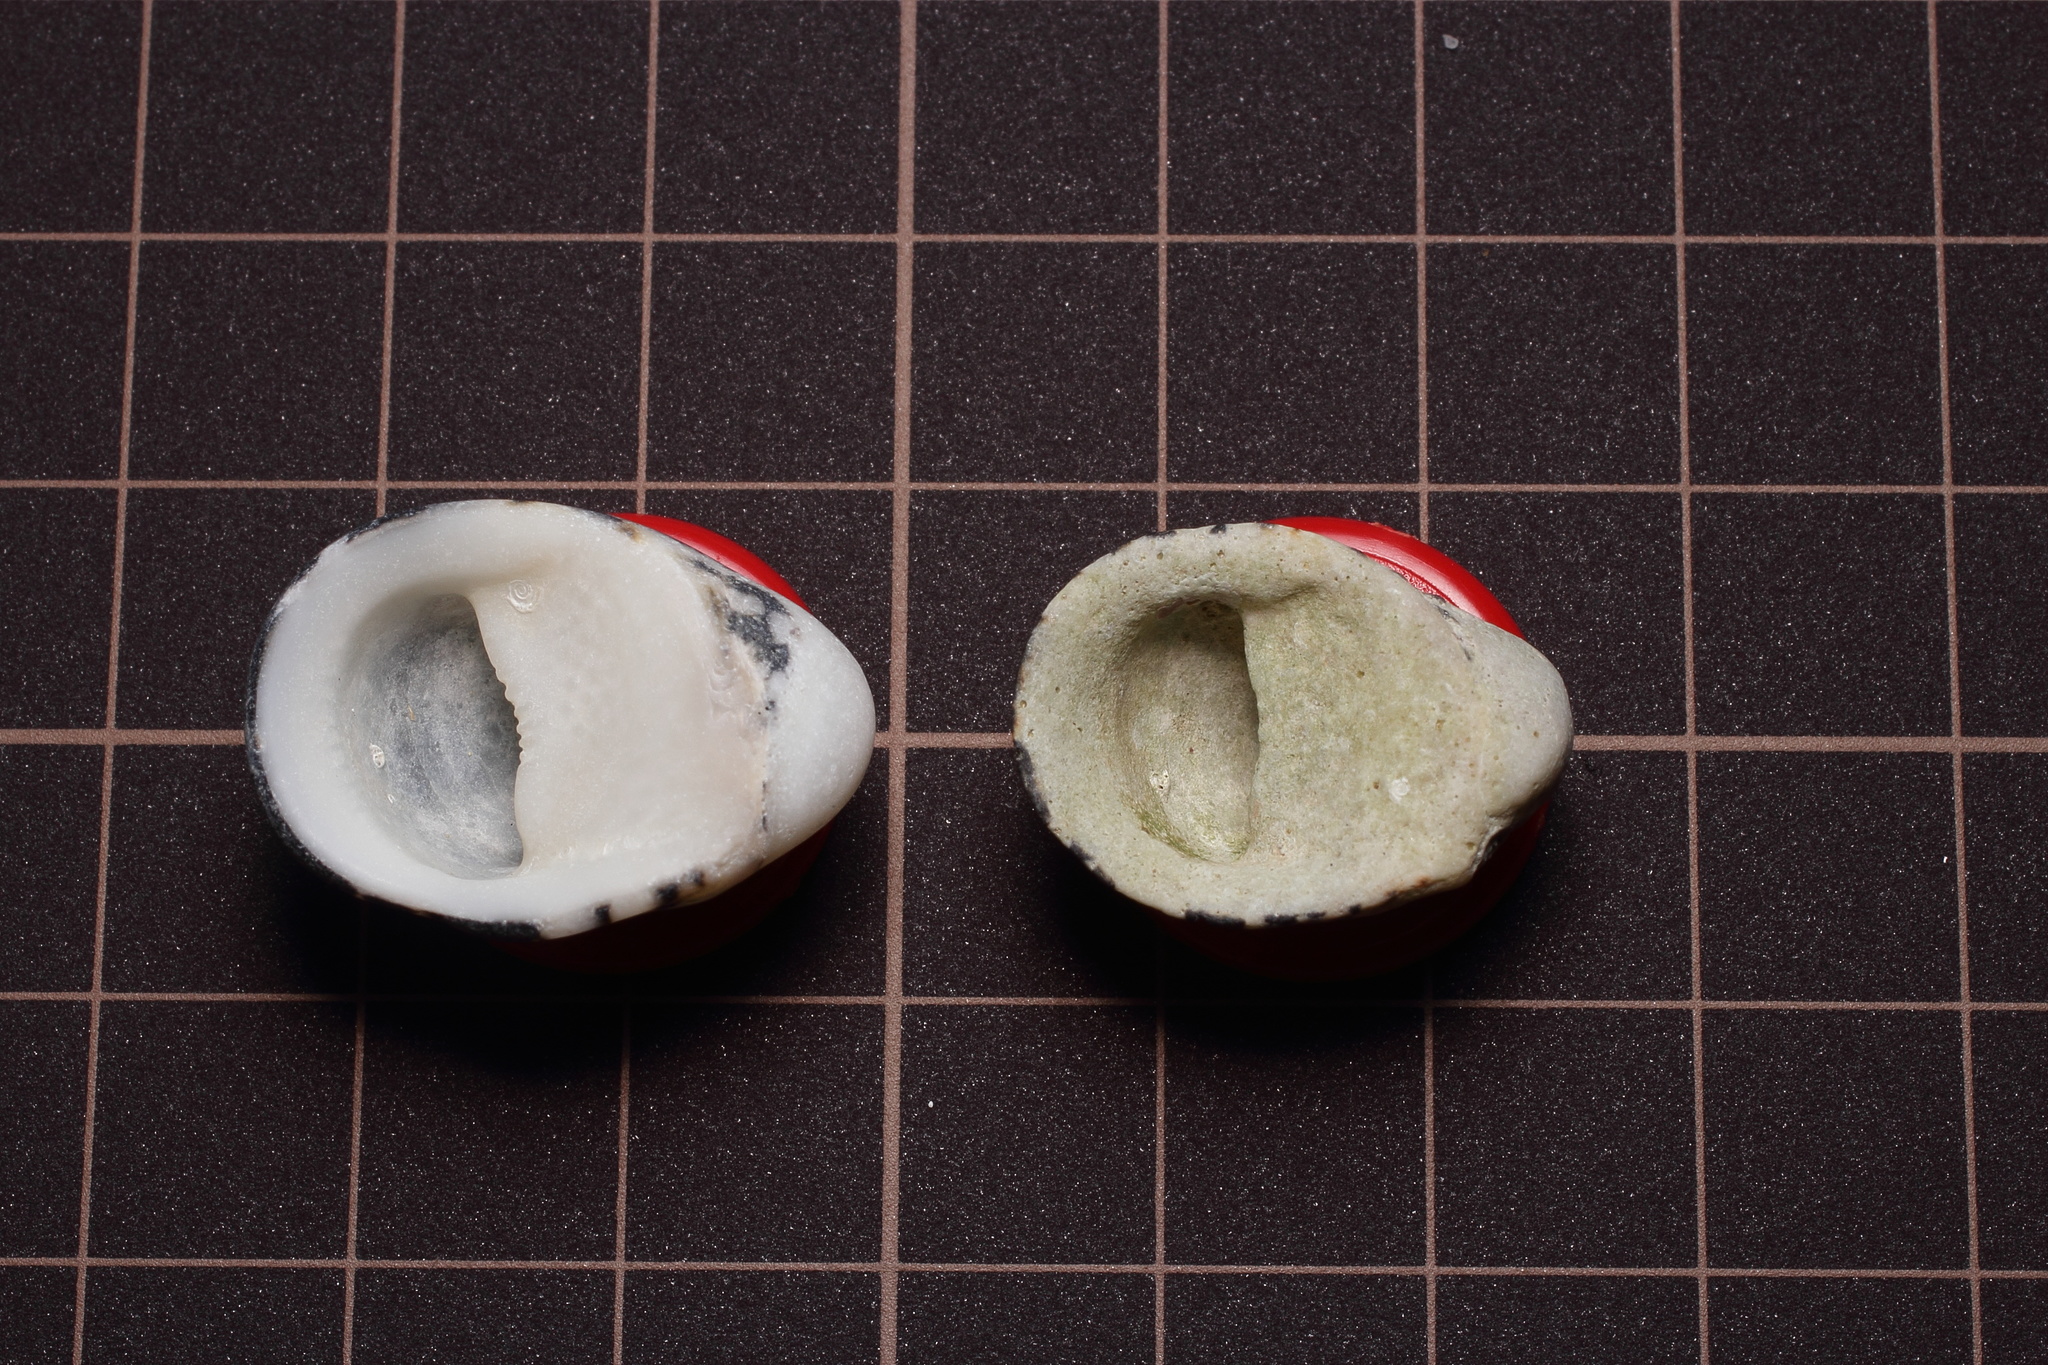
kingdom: Animalia
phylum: Mollusca
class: Gastropoda
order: Cycloneritida
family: Neritidae
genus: Nerita
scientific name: Nerita albicilla
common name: Blotched nerite
